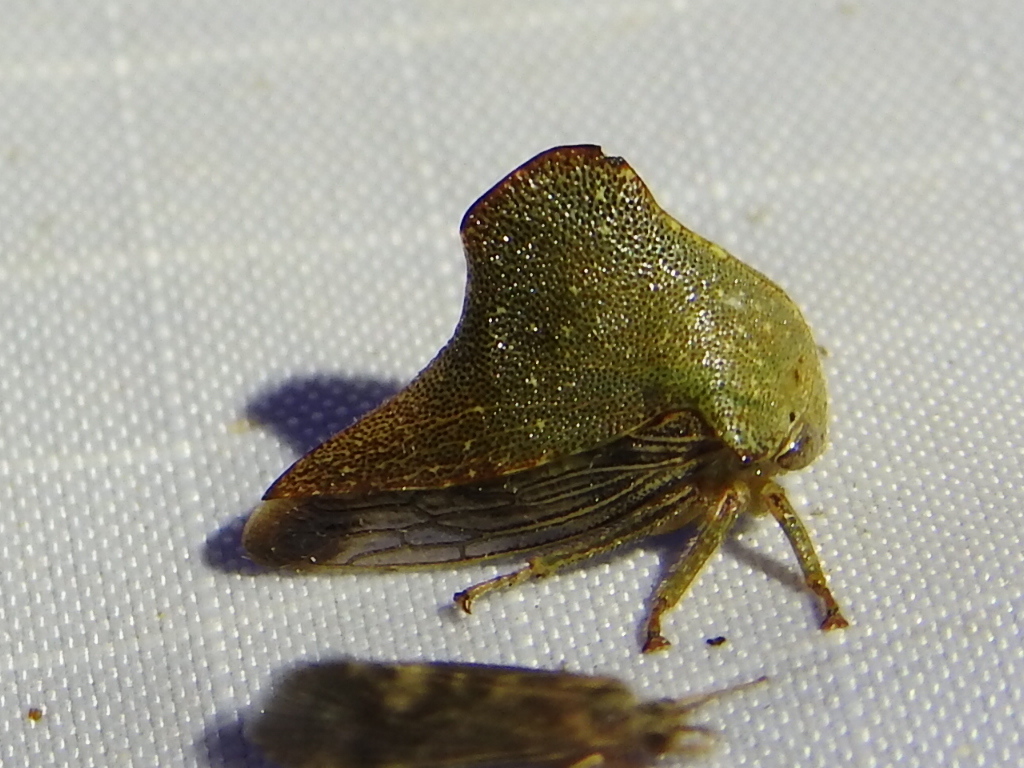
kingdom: Animalia
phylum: Arthropoda
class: Insecta
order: Hemiptera
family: Membracidae
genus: Telamona
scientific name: Telamona monticola
